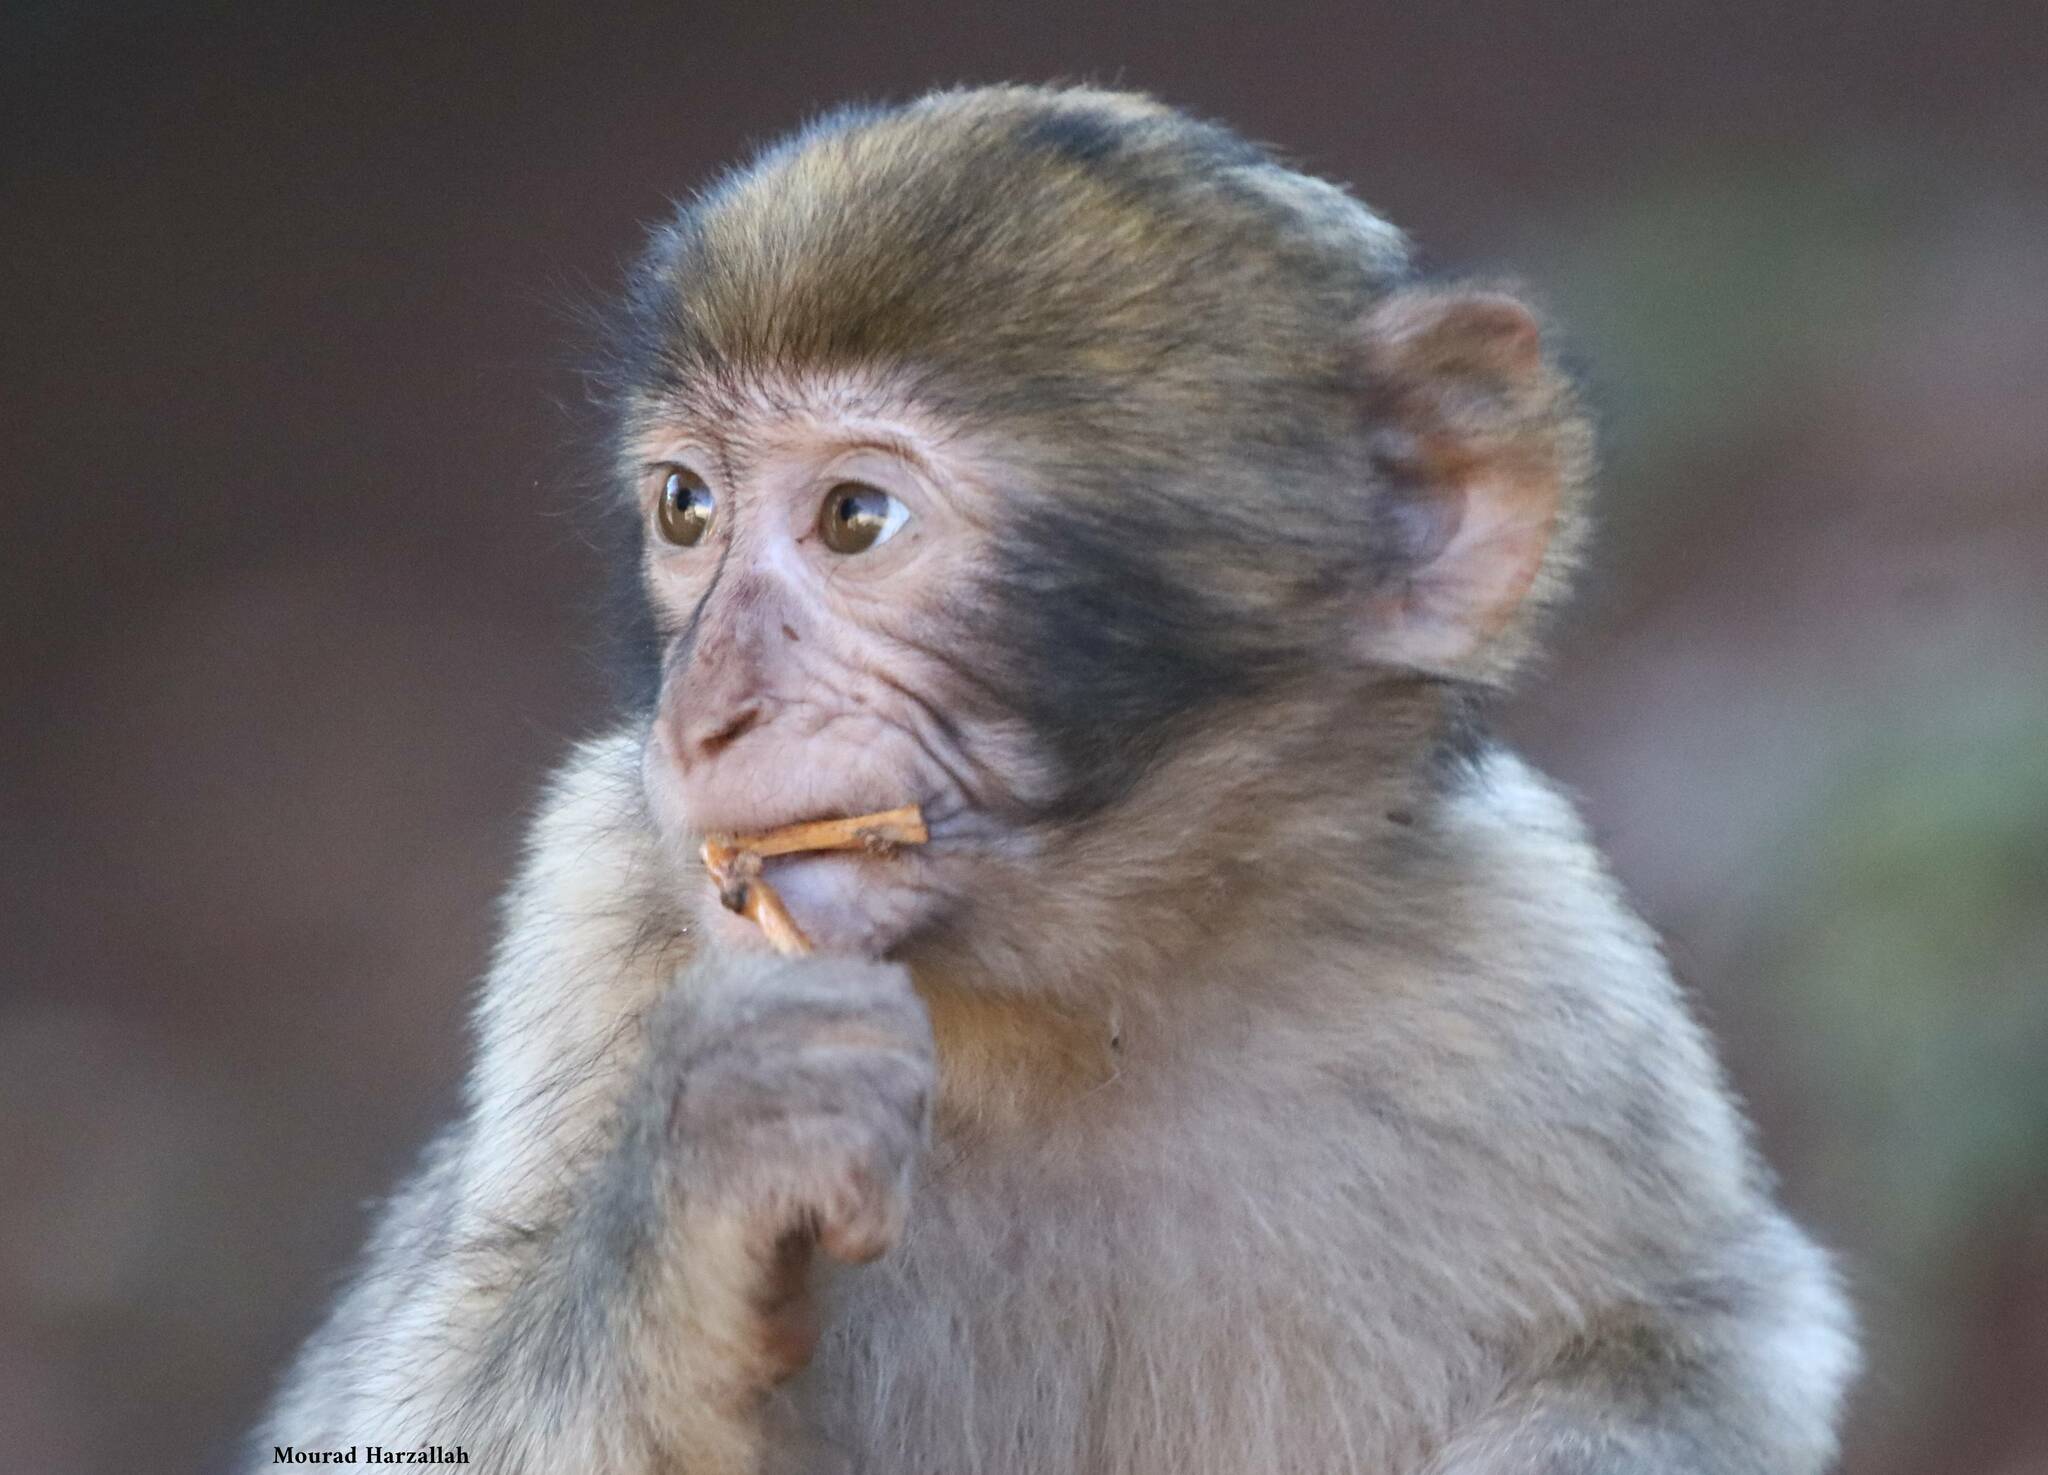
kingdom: Animalia
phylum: Chordata
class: Mammalia
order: Primates
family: Cercopithecidae
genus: Macaca
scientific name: Macaca sylvanus
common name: Barbary macaque
